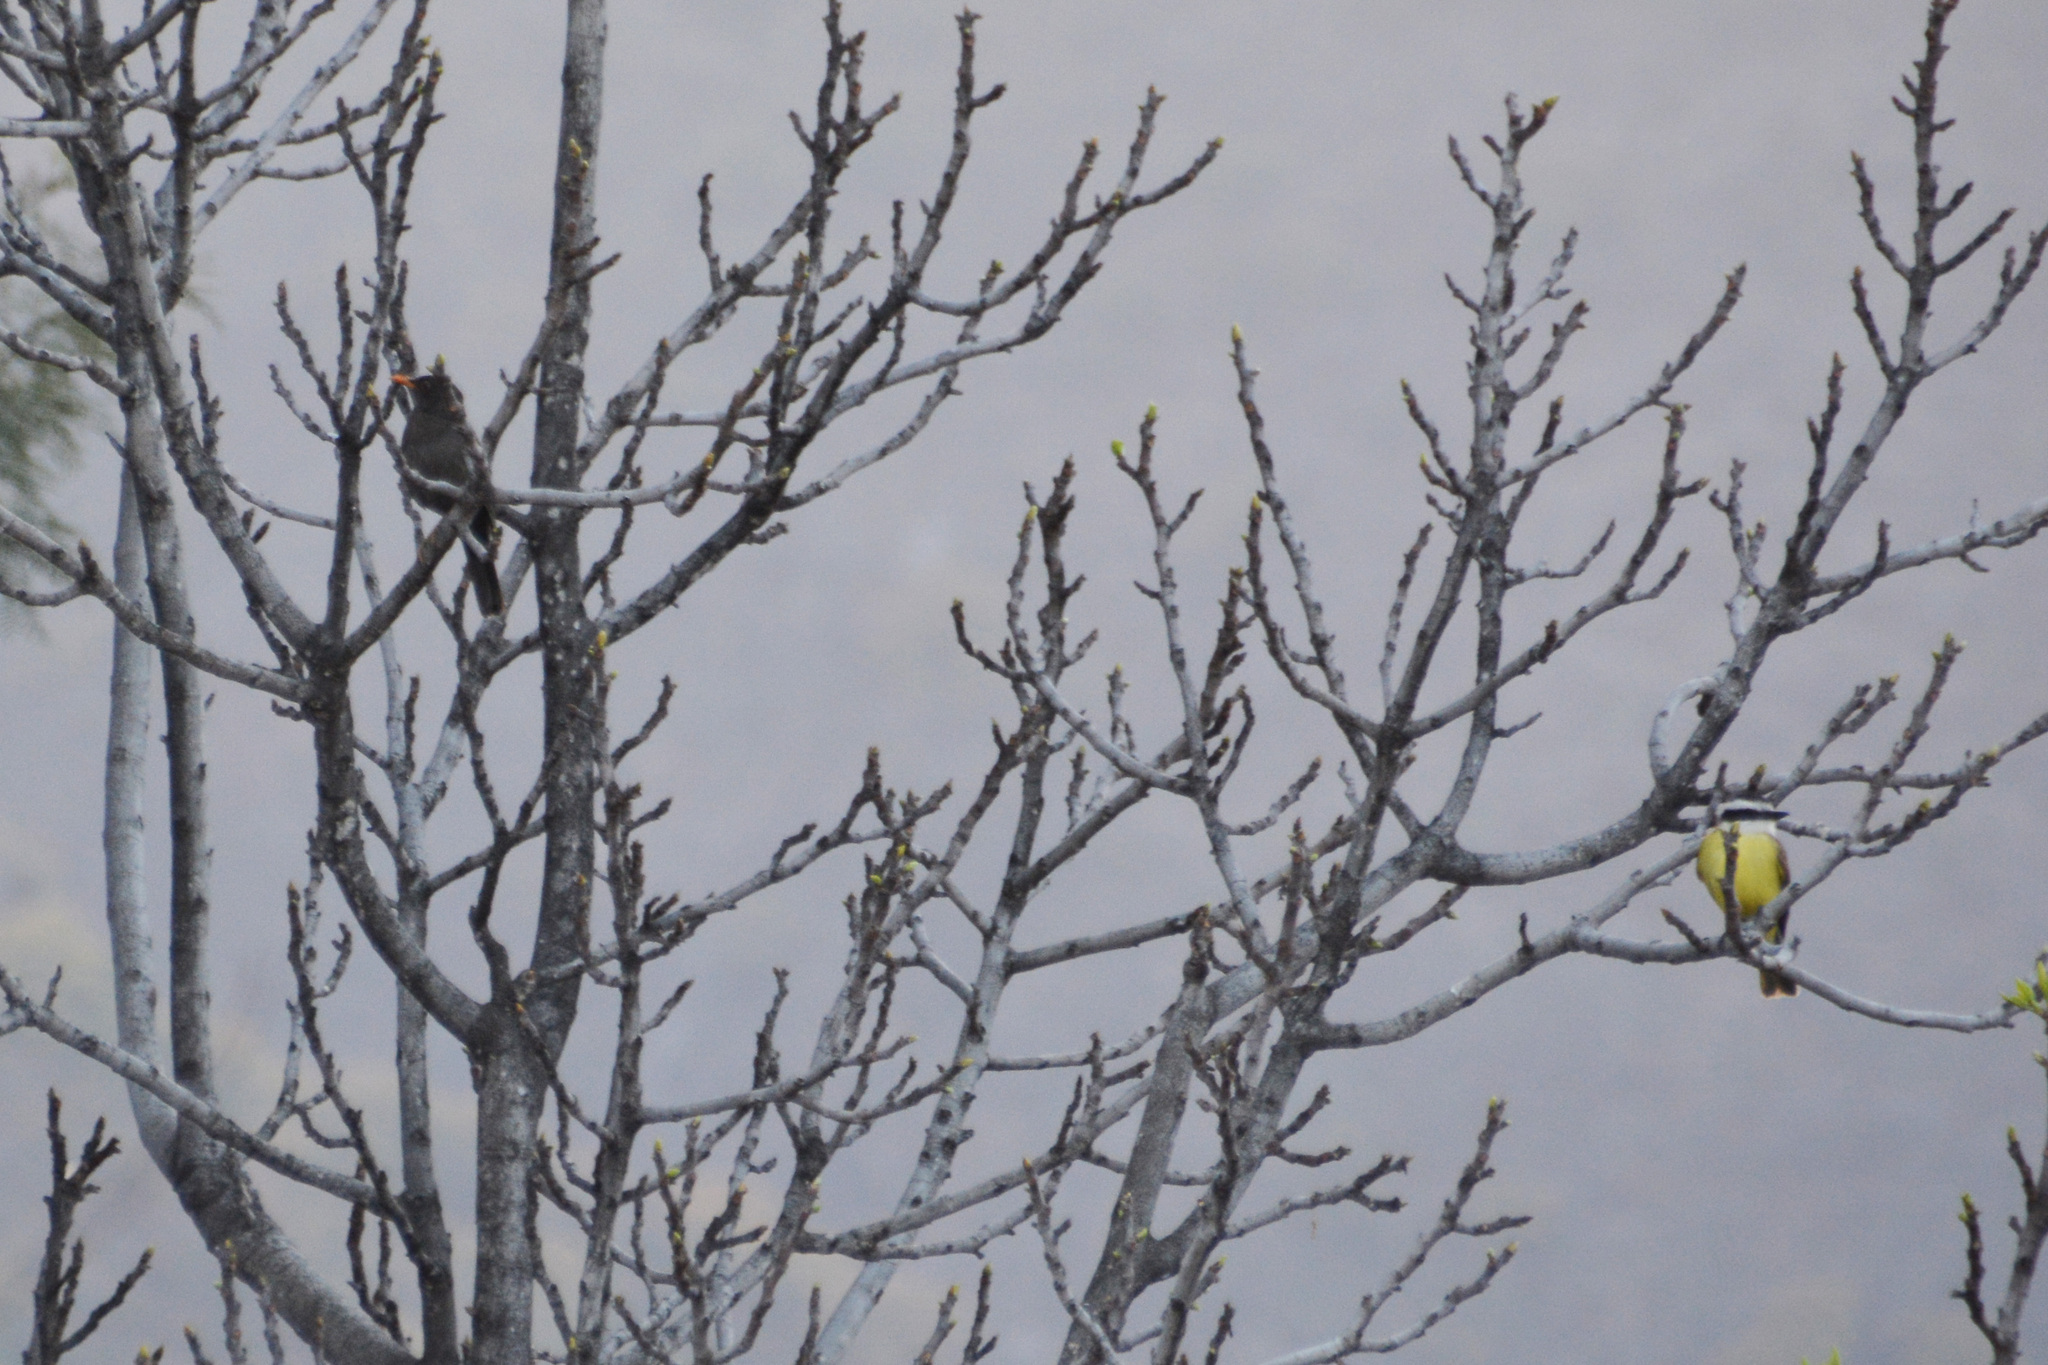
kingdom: Animalia
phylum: Chordata
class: Aves
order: Passeriformes
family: Turdidae
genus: Turdus
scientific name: Turdus chiguanco
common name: Chiguanco thrush
